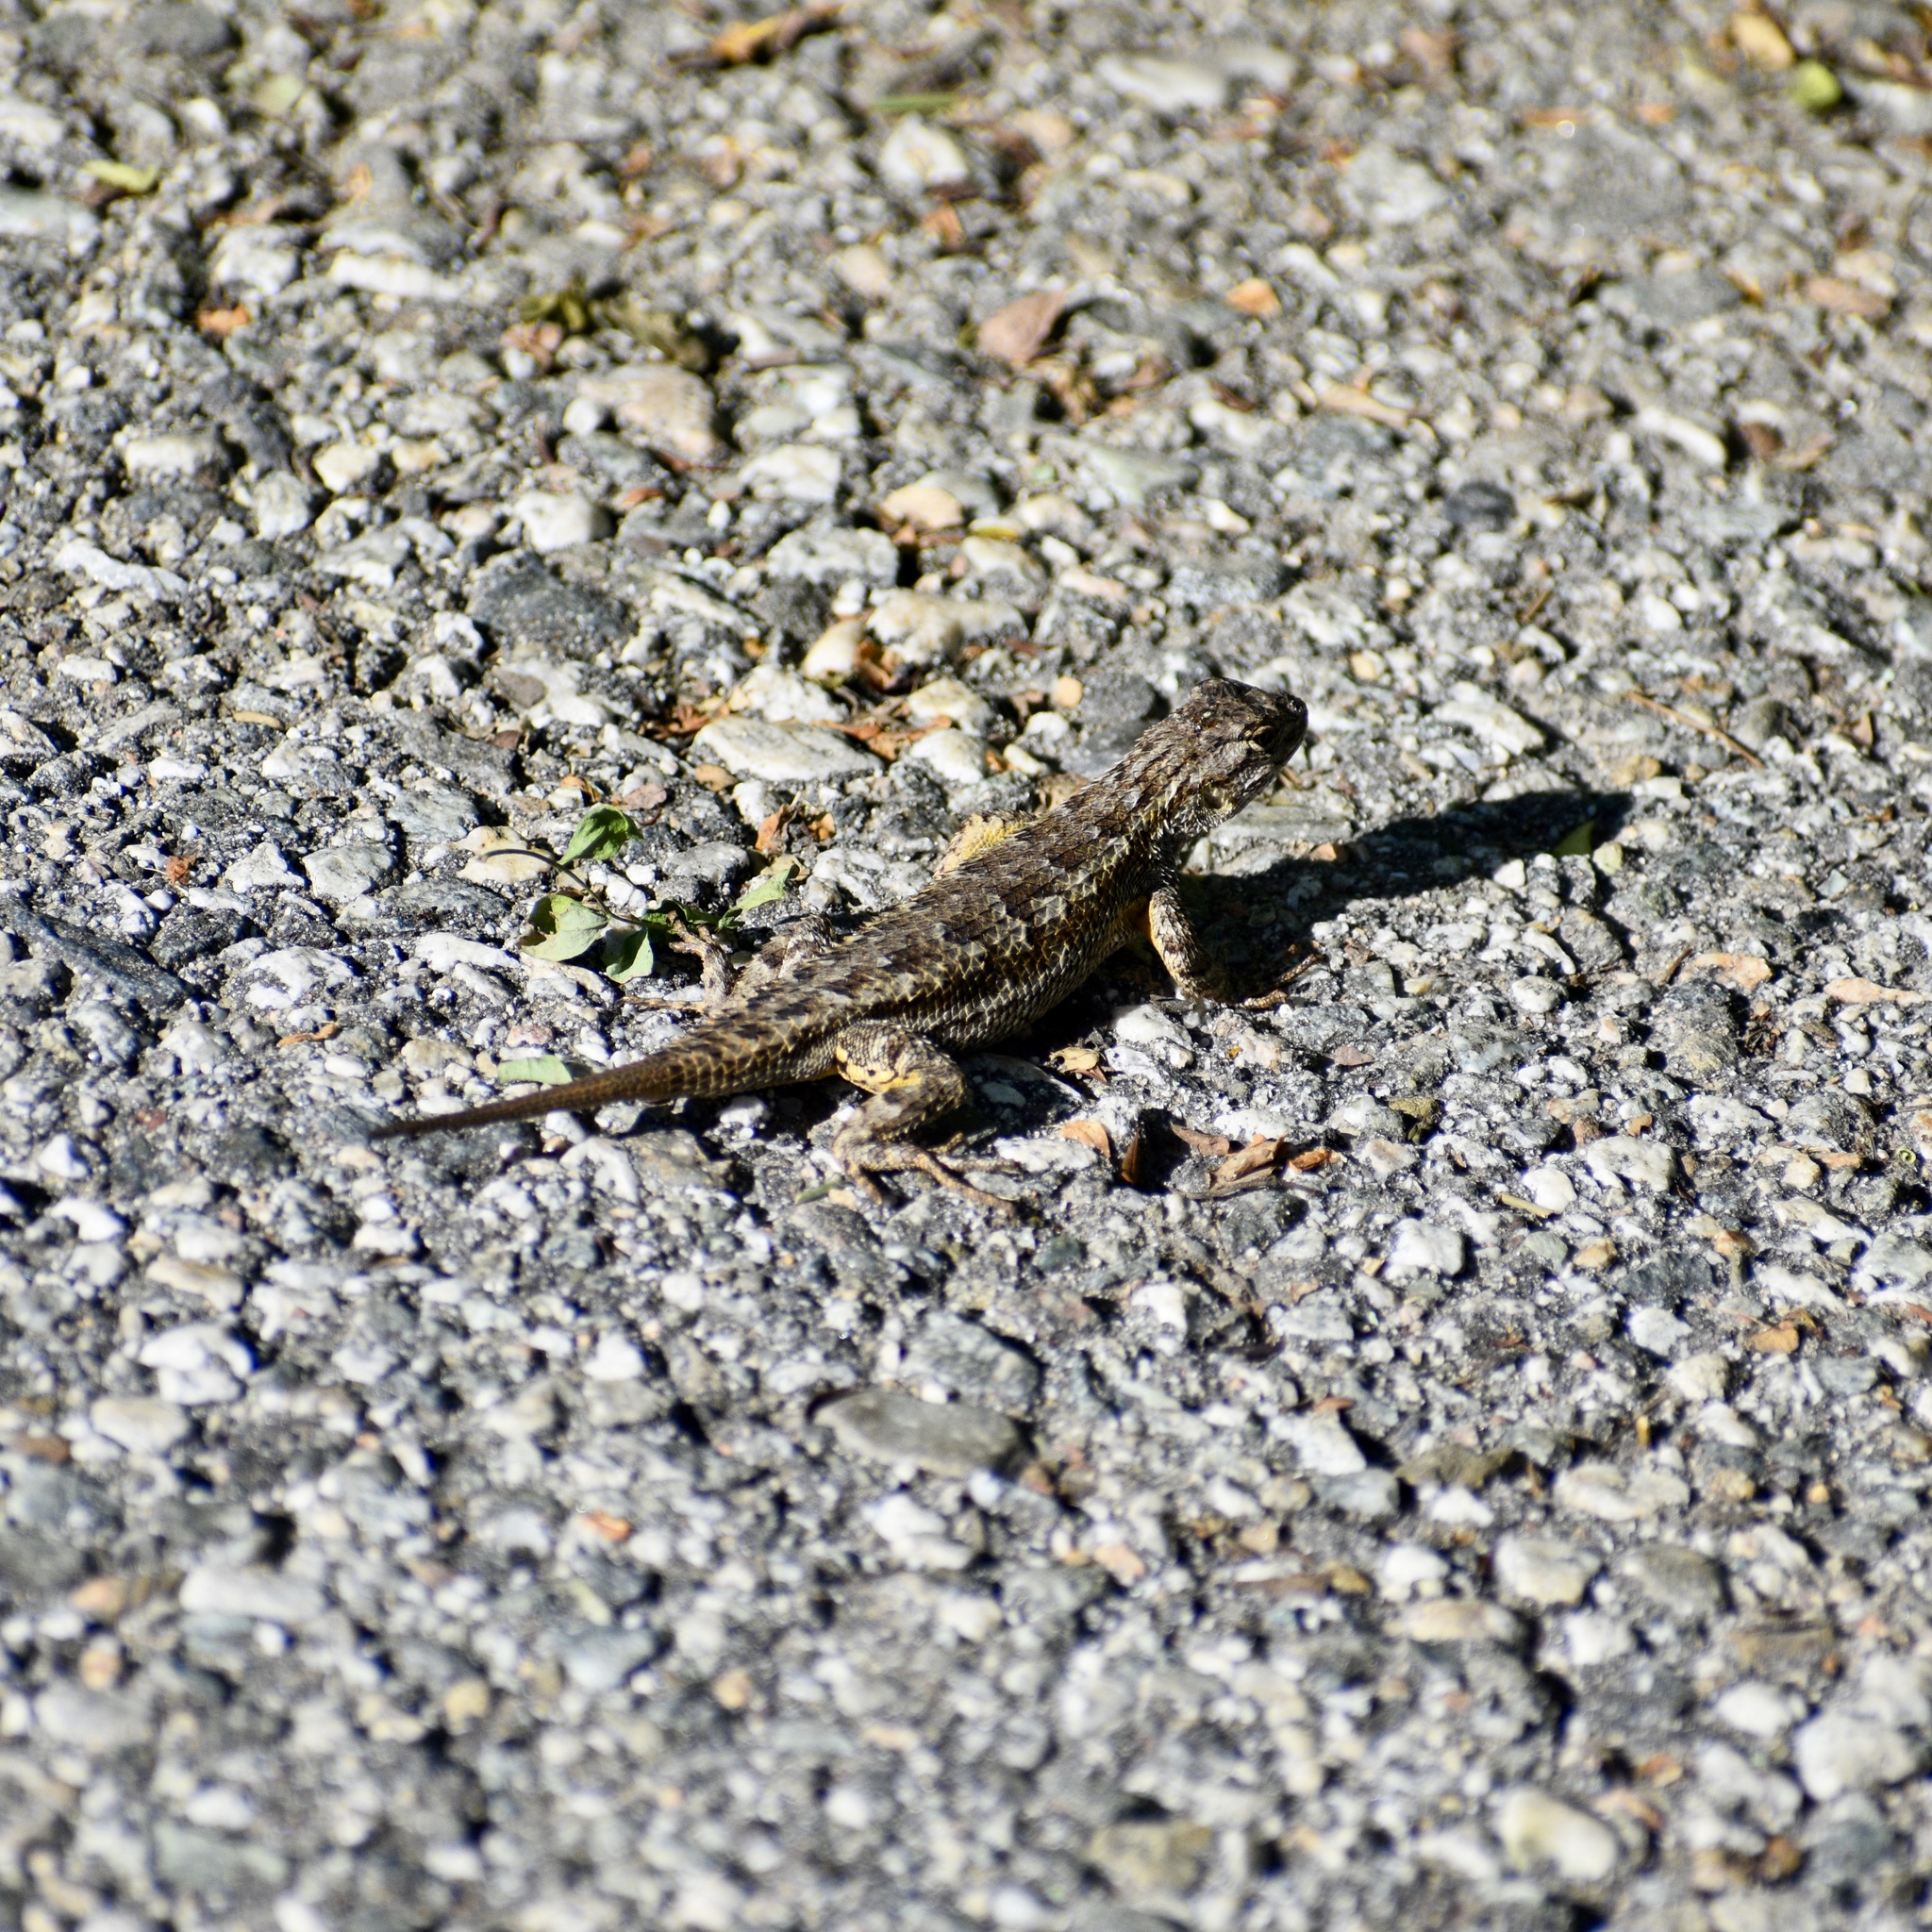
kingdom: Animalia
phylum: Chordata
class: Squamata
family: Phrynosomatidae
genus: Sceloporus
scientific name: Sceloporus occidentalis
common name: Western fence lizard
